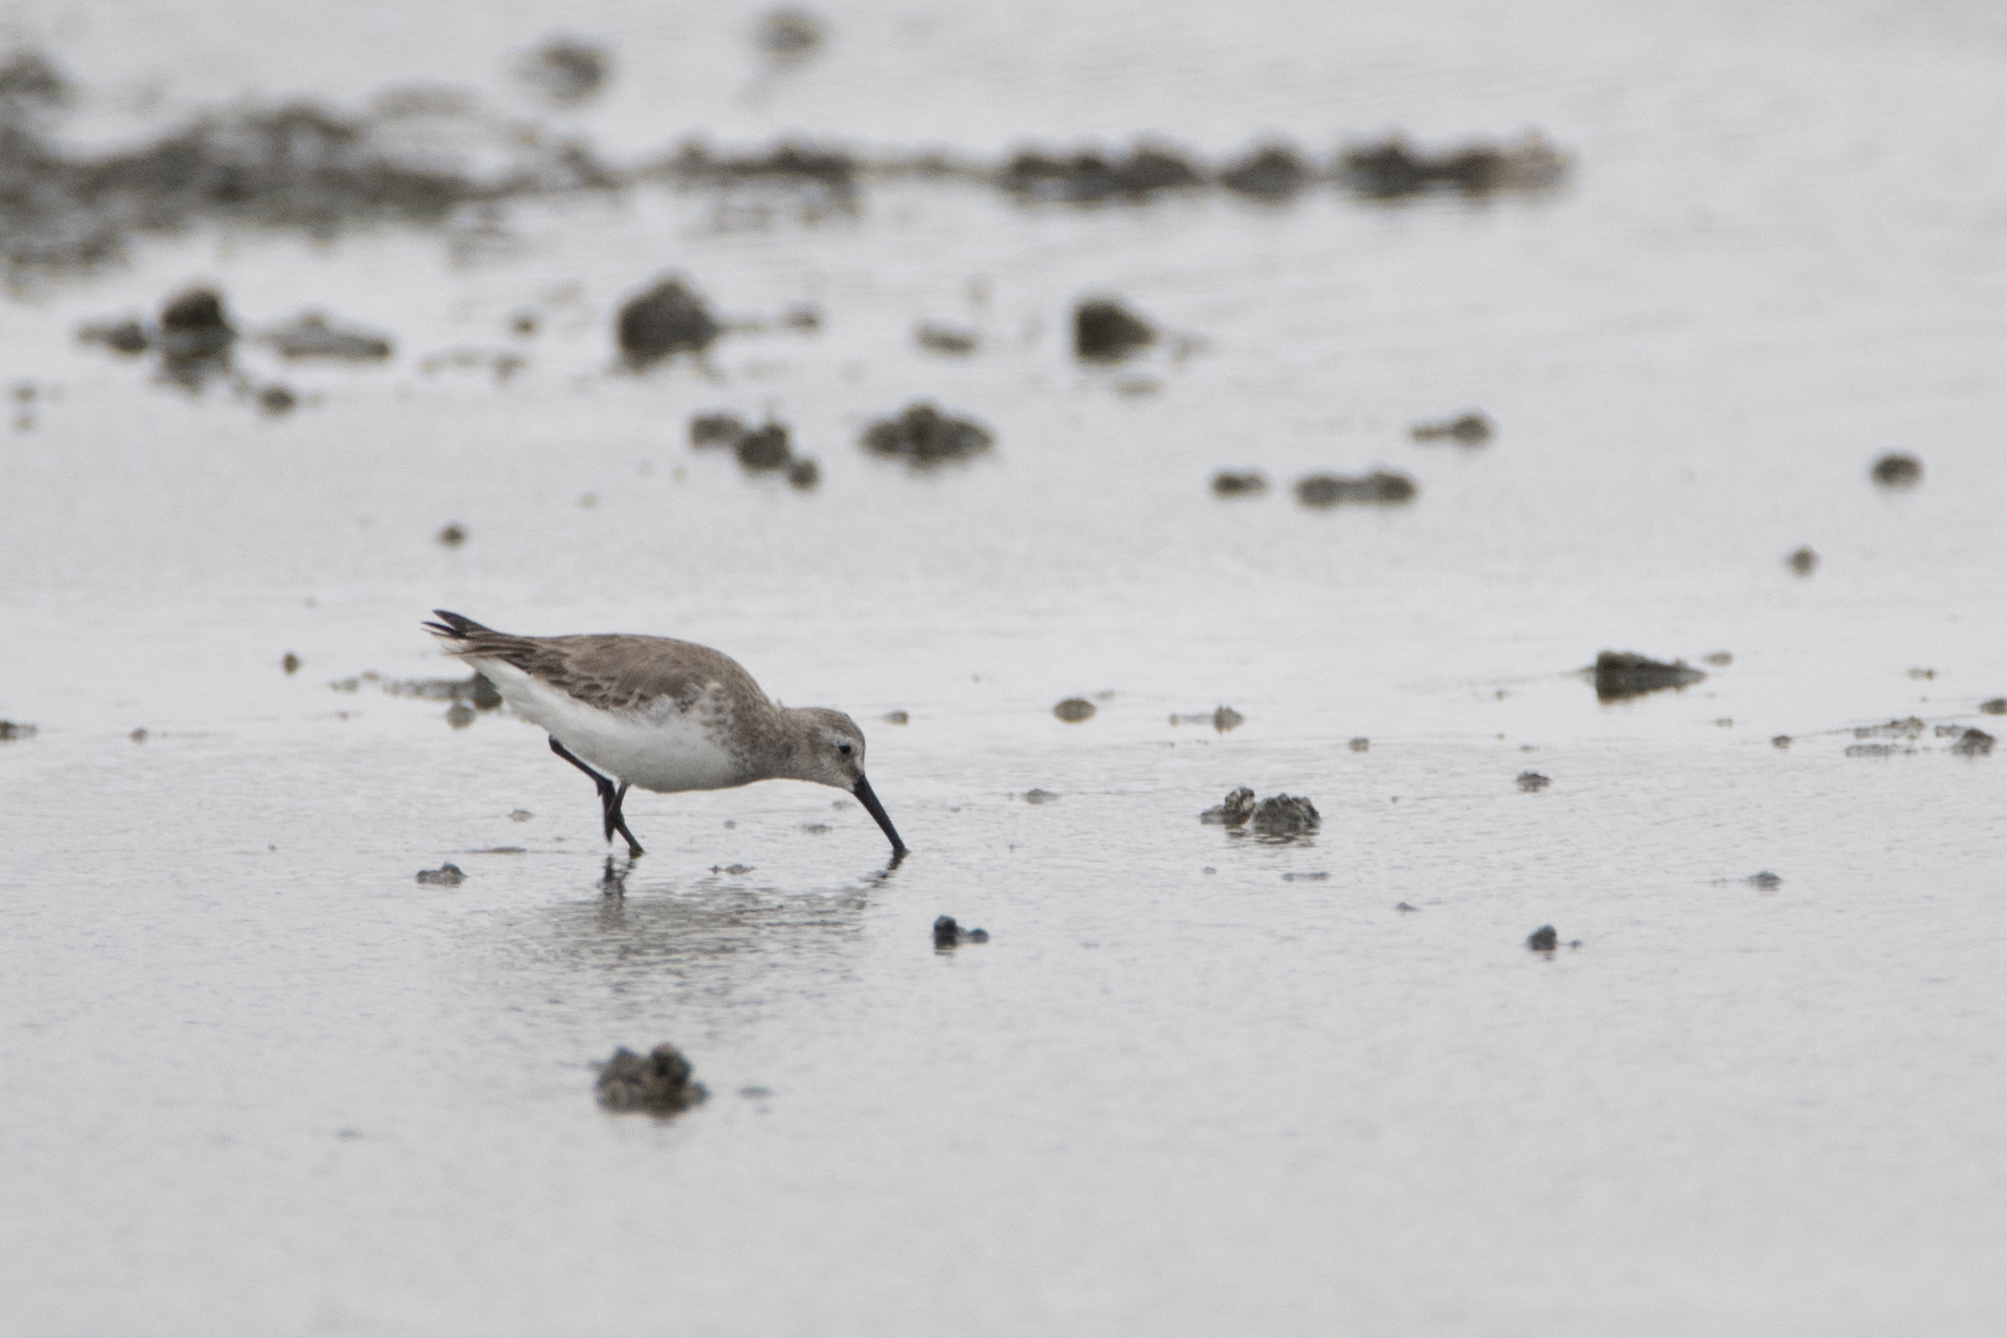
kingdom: Animalia
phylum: Chordata
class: Aves
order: Charadriiformes
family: Scolopacidae
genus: Calidris
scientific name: Calidris alpina
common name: Dunlin
